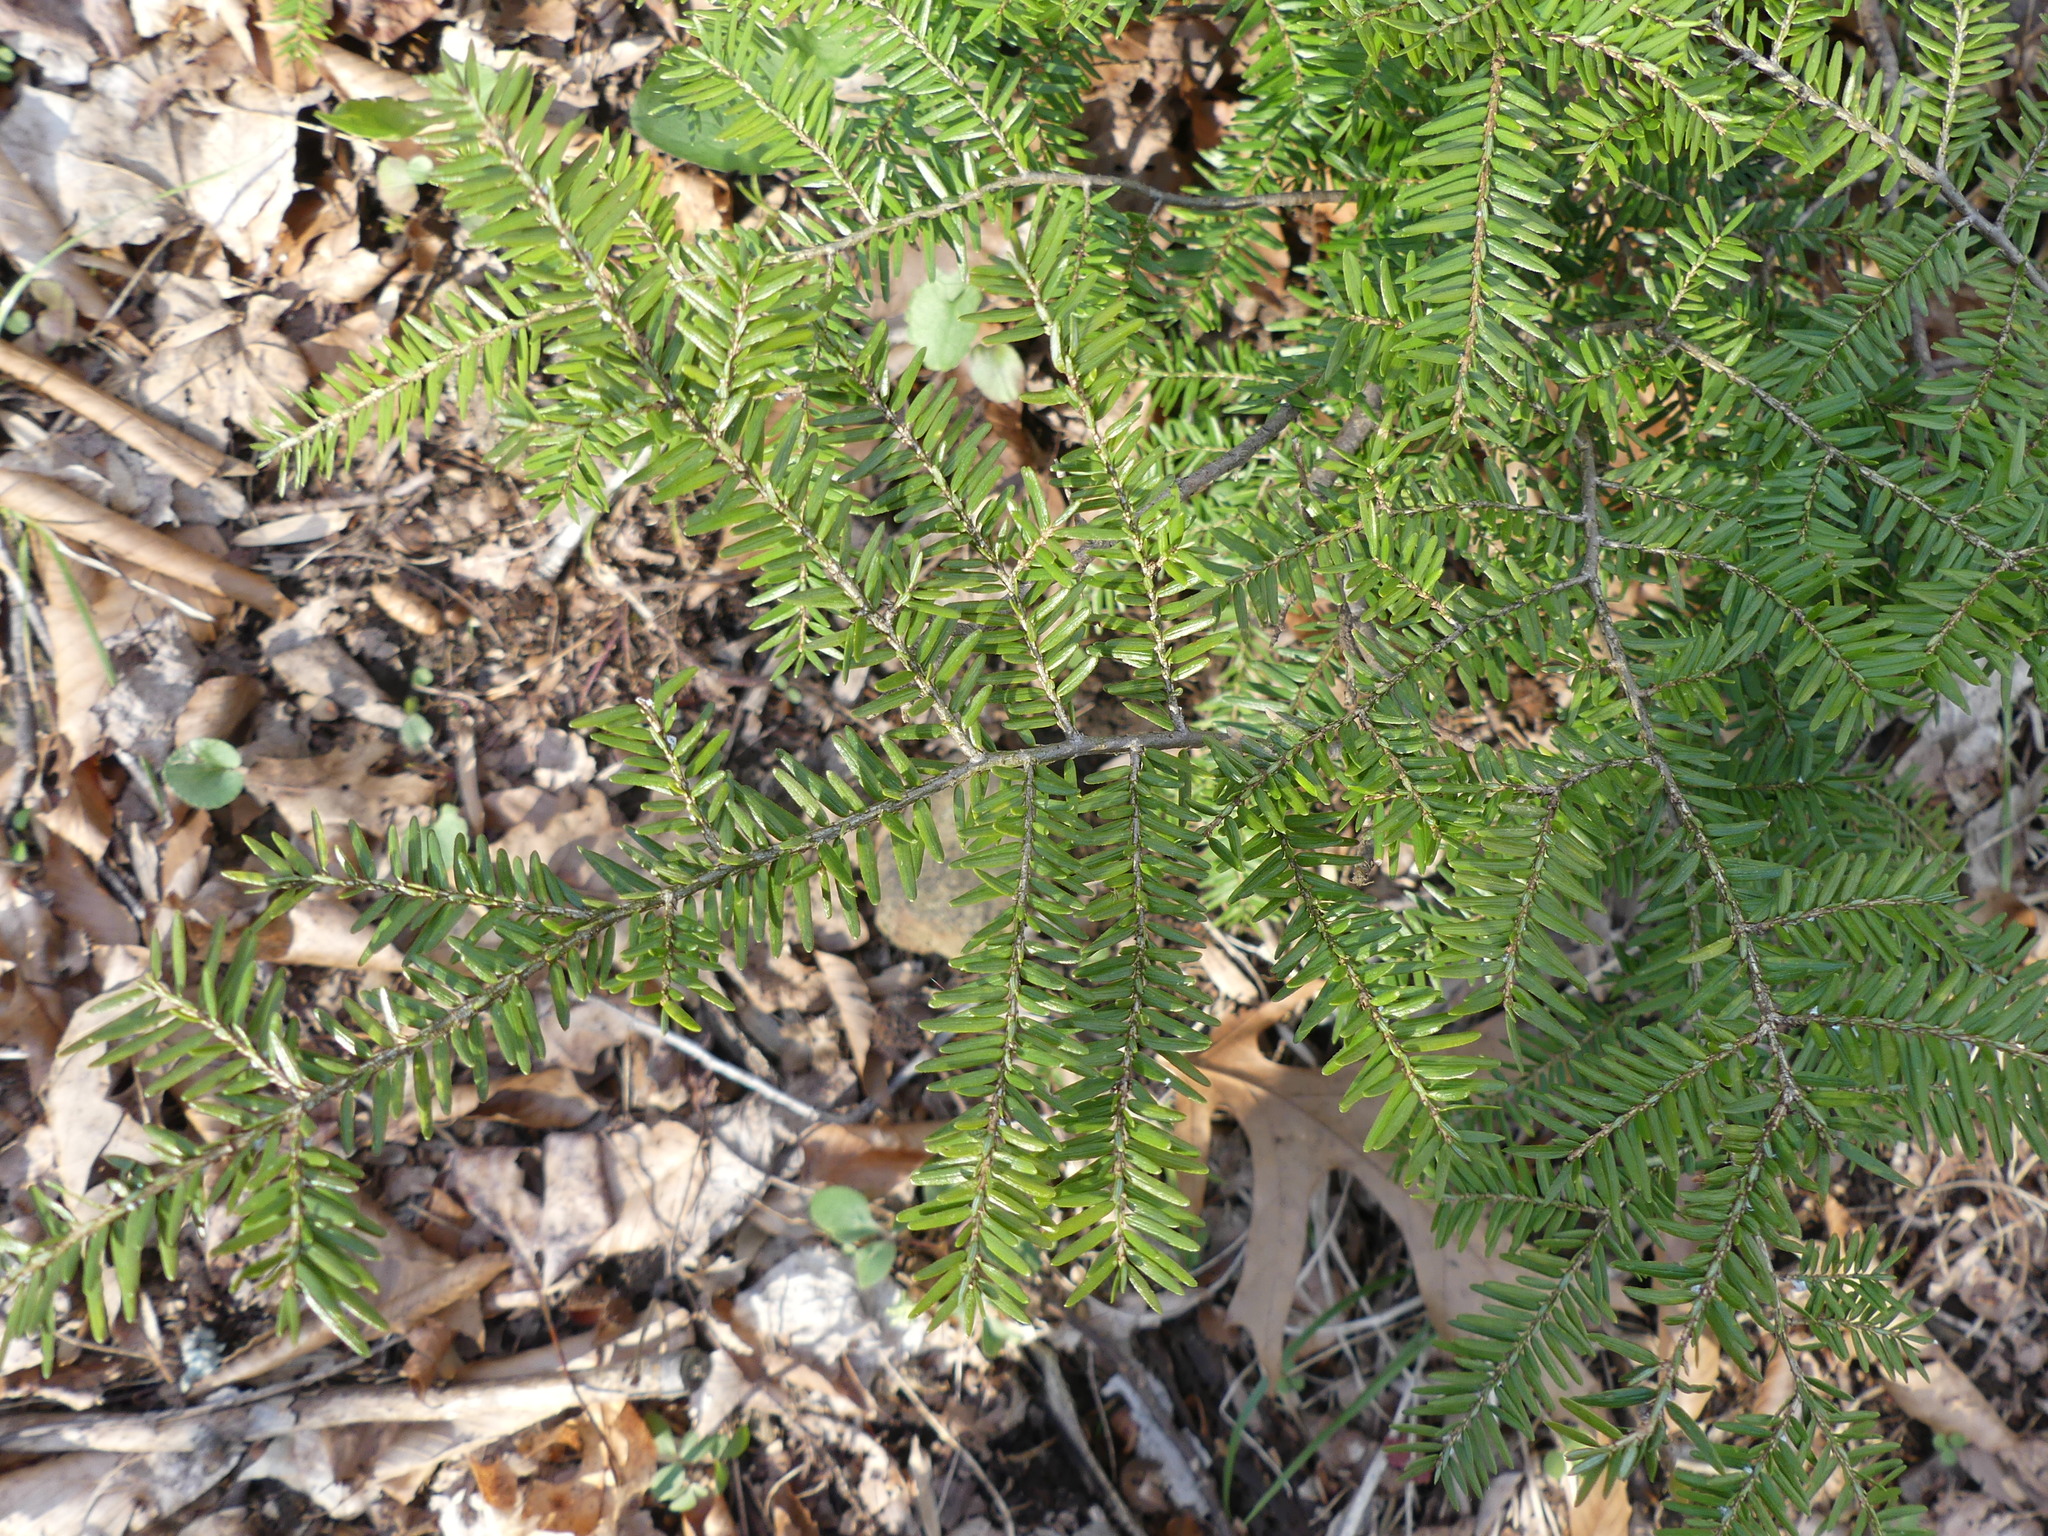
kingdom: Plantae
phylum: Tracheophyta
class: Pinopsida
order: Pinales
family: Pinaceae
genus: Tsuga
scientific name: Tsuga canadensis
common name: Eastern hemlock
